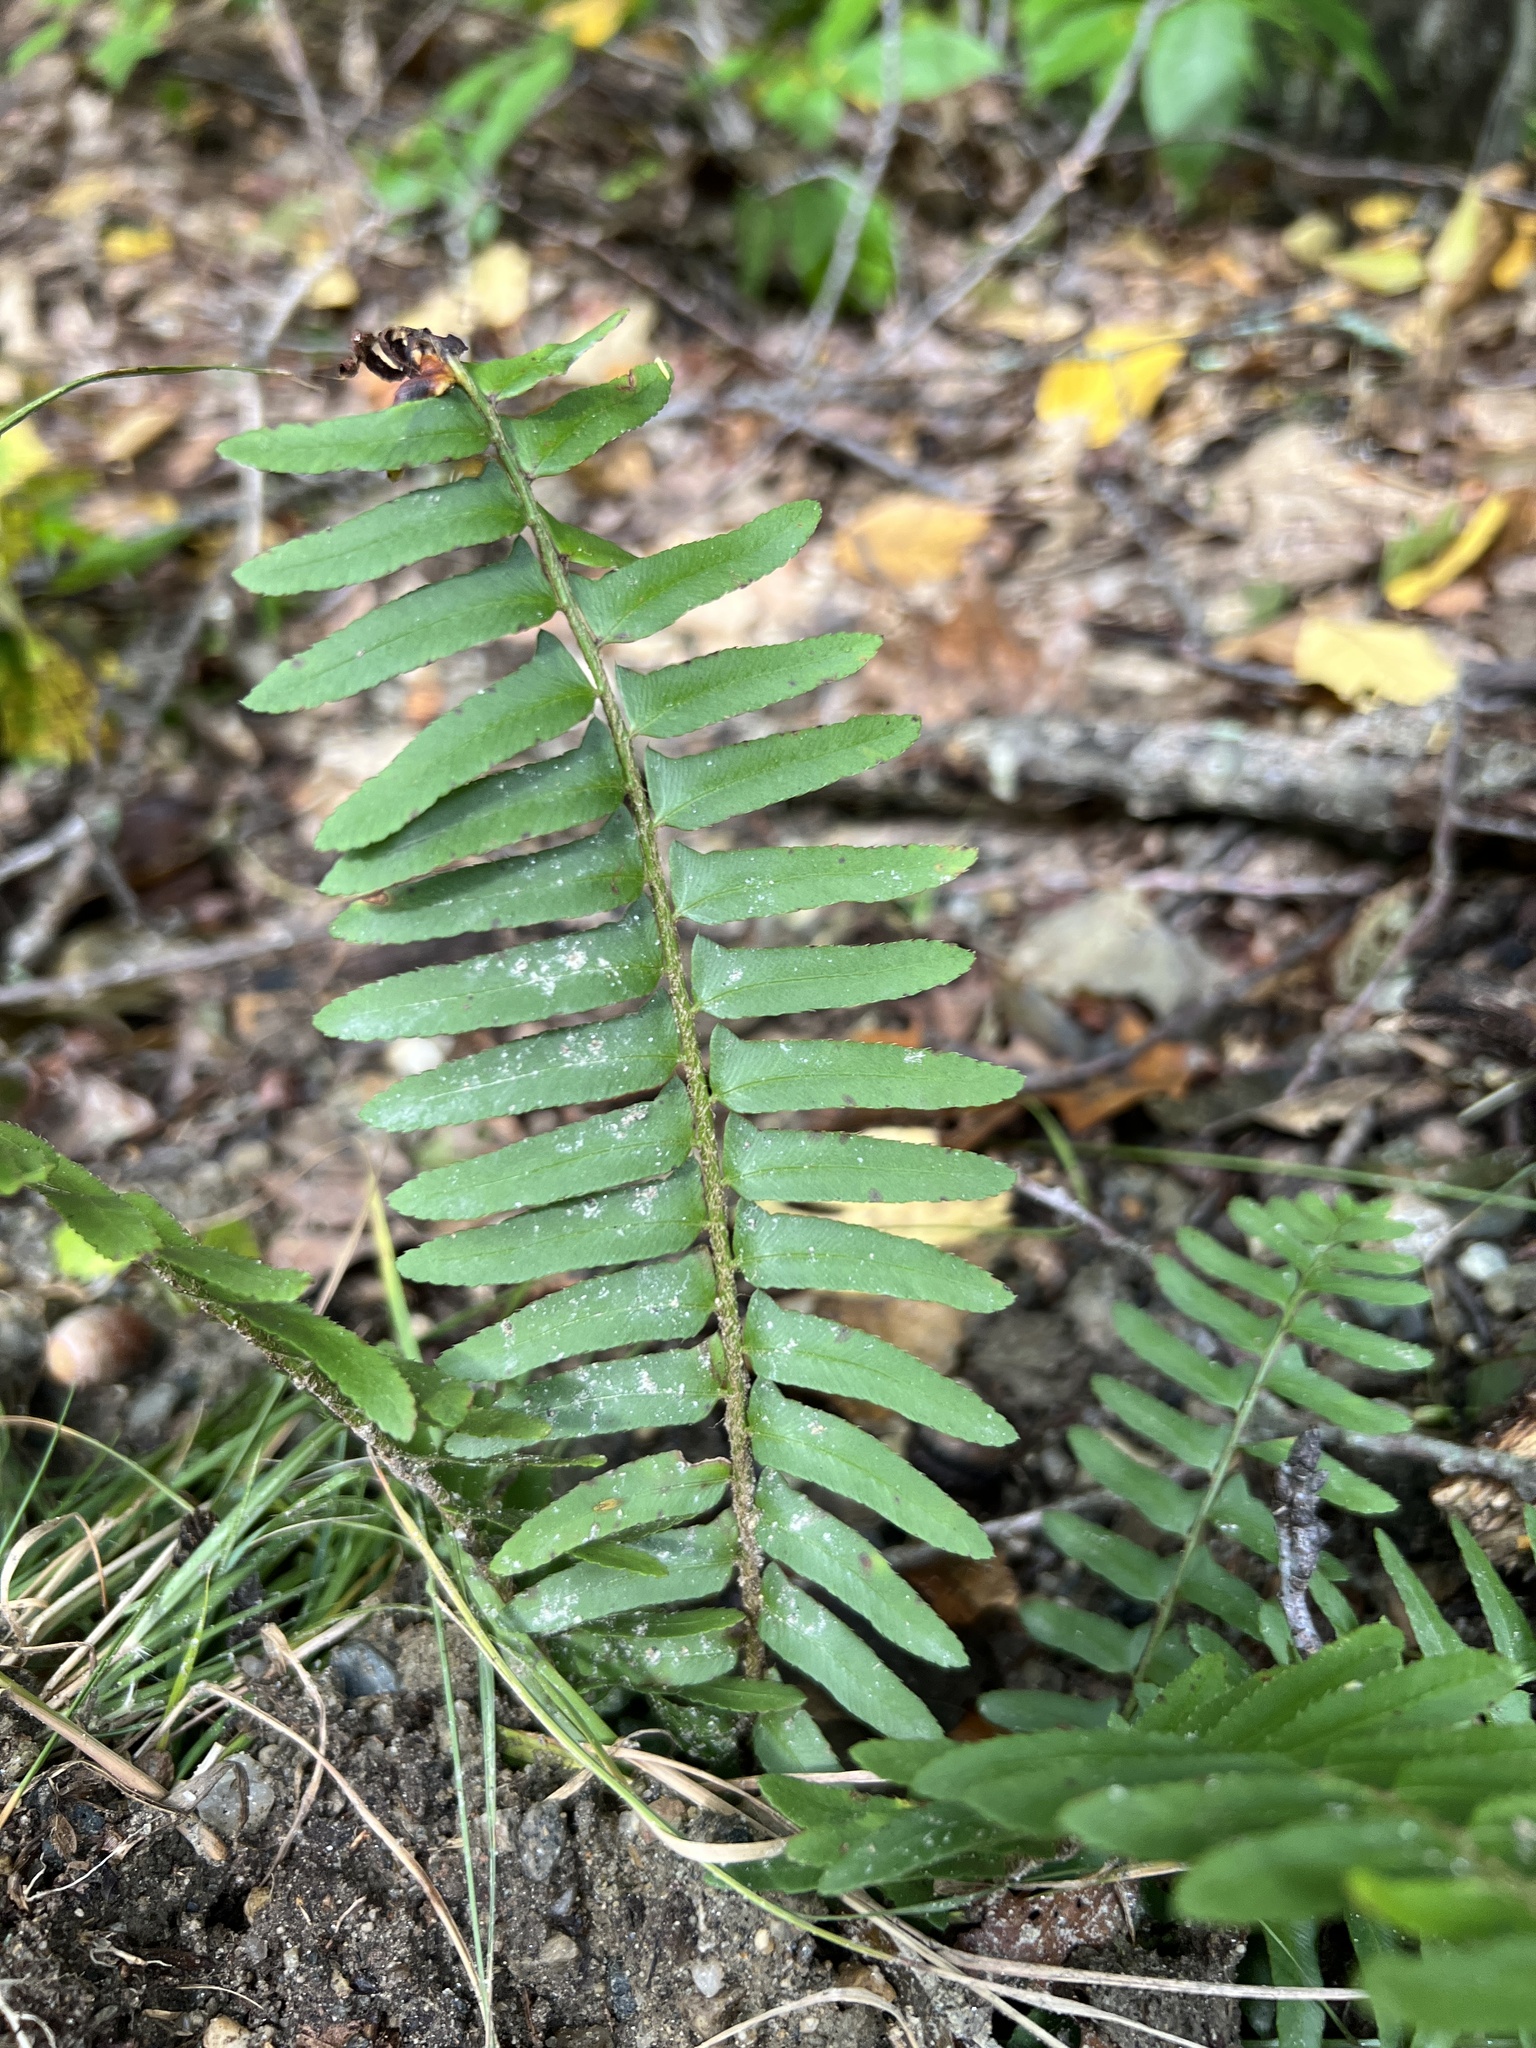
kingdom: Plantae
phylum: Tracheophyta
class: Polypodiopsida
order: Polypodiales
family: Dryopteridaceae
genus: Polystichum
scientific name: Polystichum acrostichoides
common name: Christmas fern
